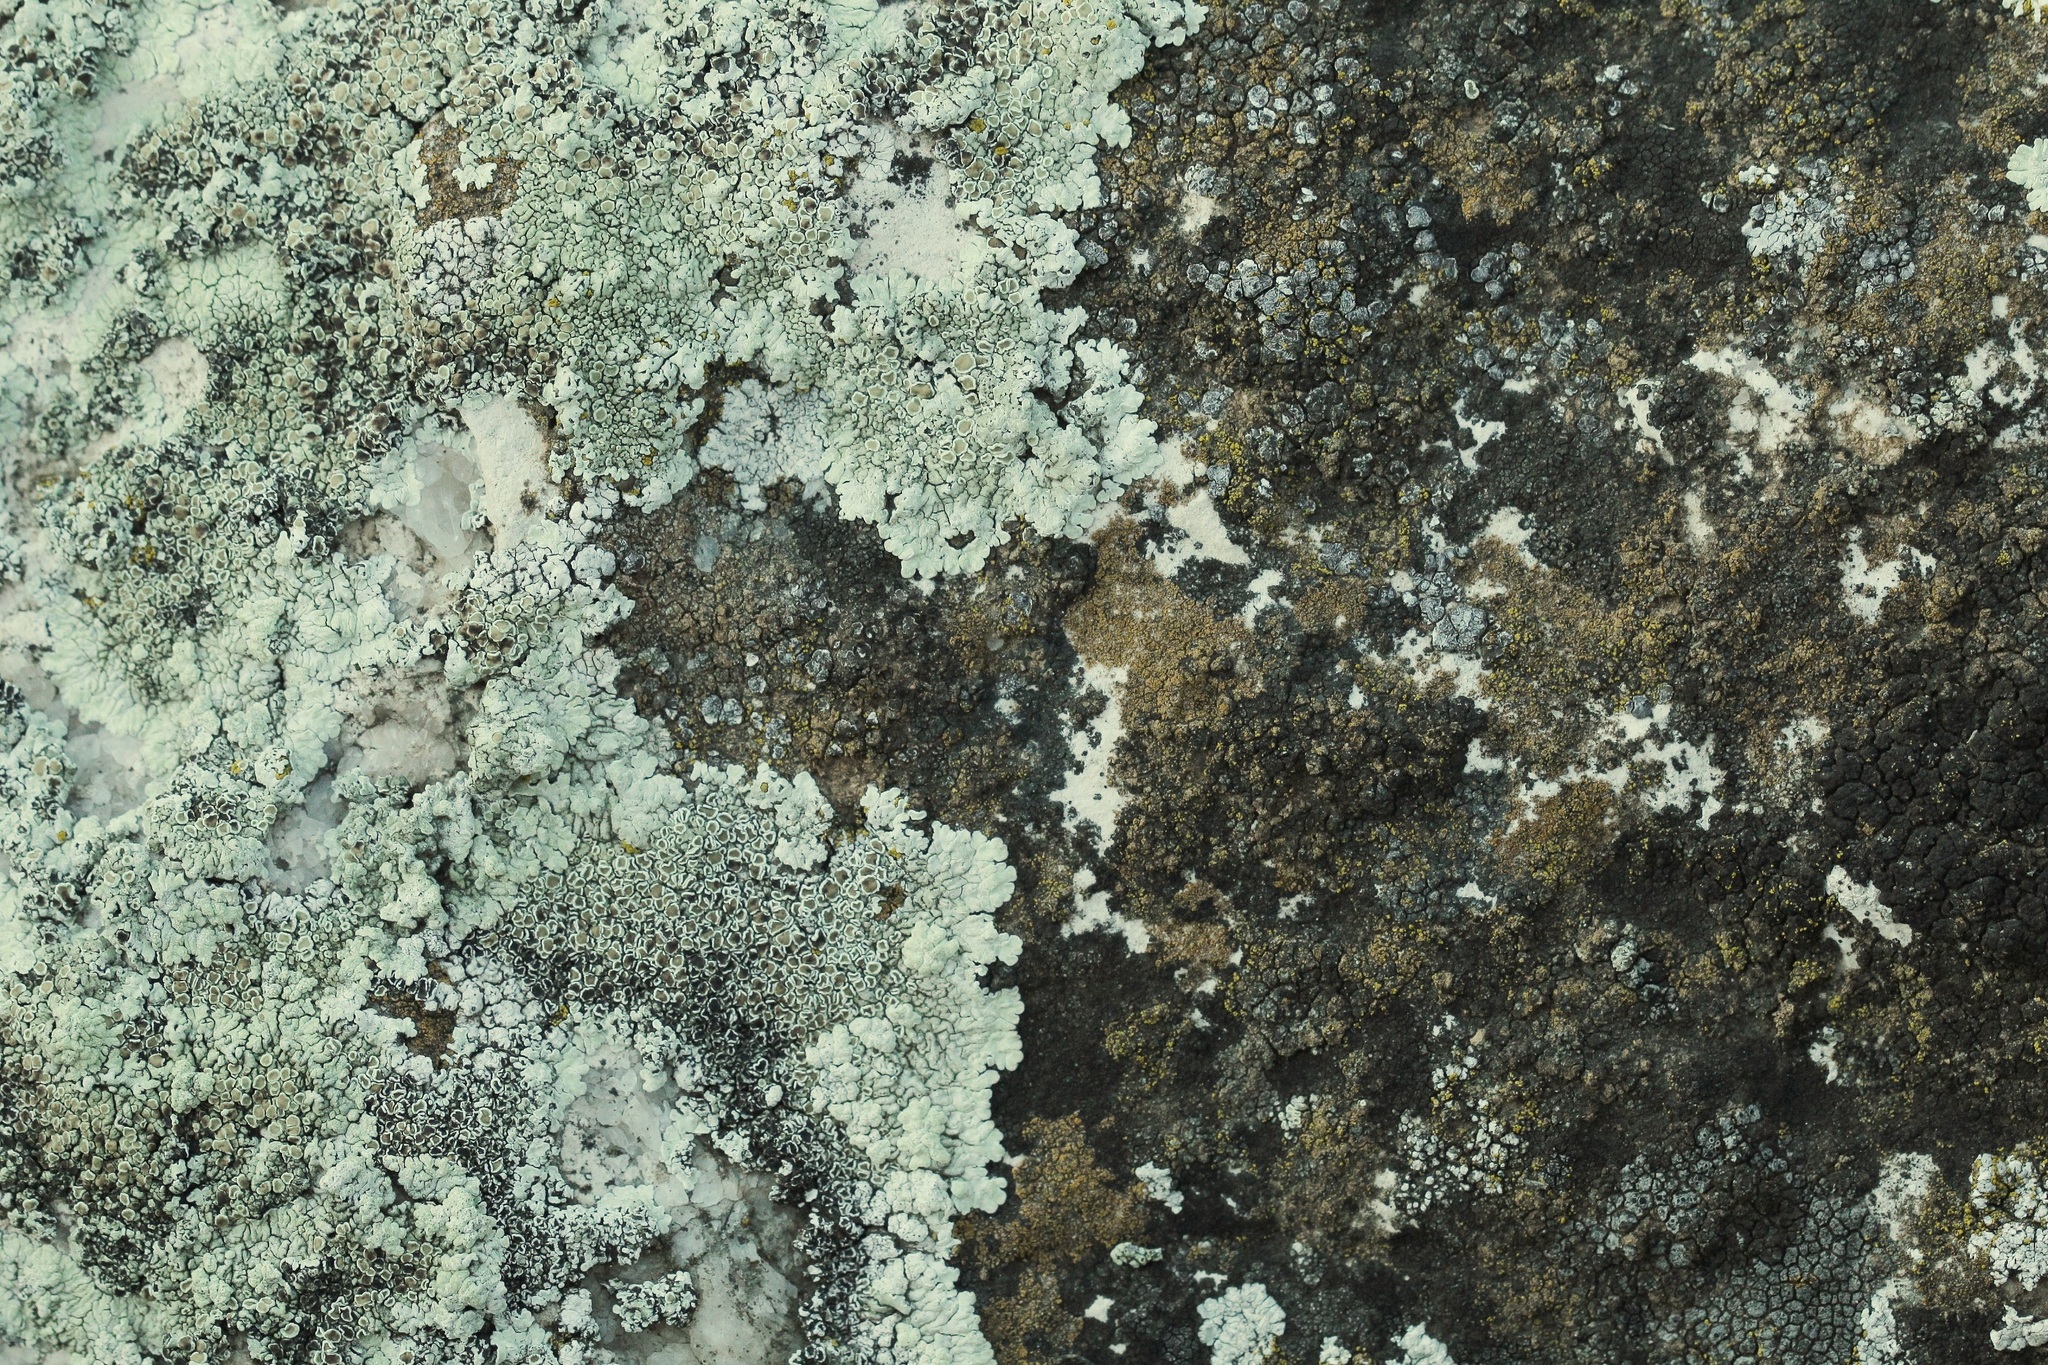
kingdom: Fungi
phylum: Ascomycota
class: Lecanoromycetes
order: Lecanorales
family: Lecanoraceae
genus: Protoparmeliopsis
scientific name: Protoparmeliopsis muralis
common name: Stonewall rim lichen
